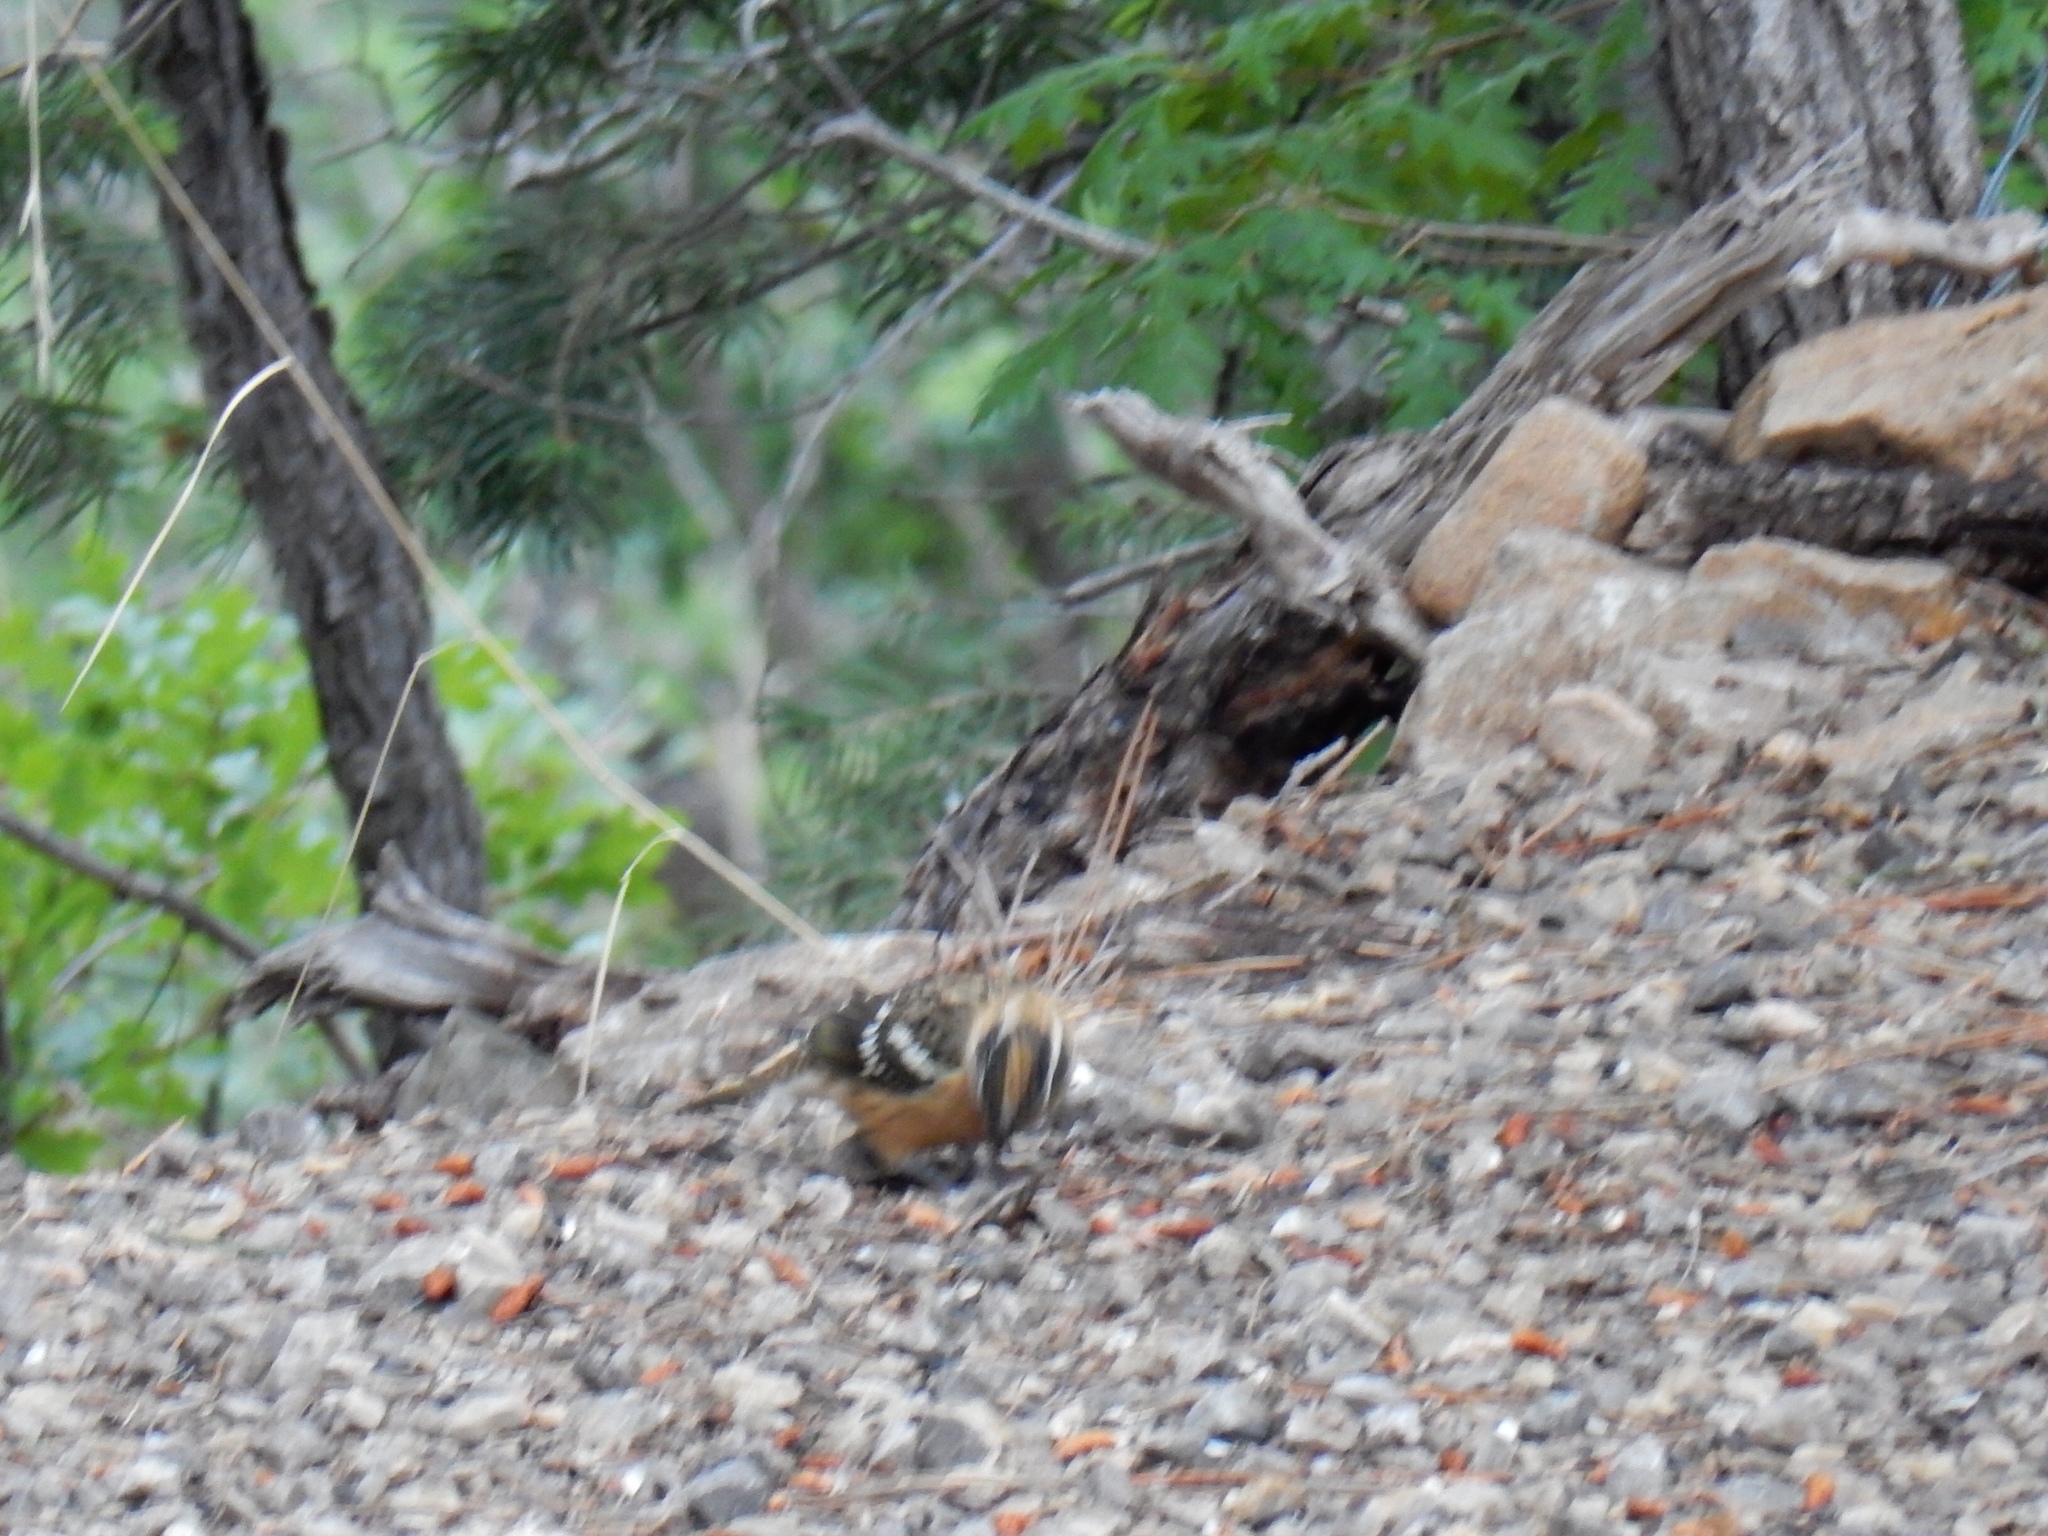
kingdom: Animalia
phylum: Chordata
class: Aves
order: Passeriformes
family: Cardinalidae
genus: Pheucticus
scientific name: Pheucticus melanocephalus
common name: Black-headed grosbeak
